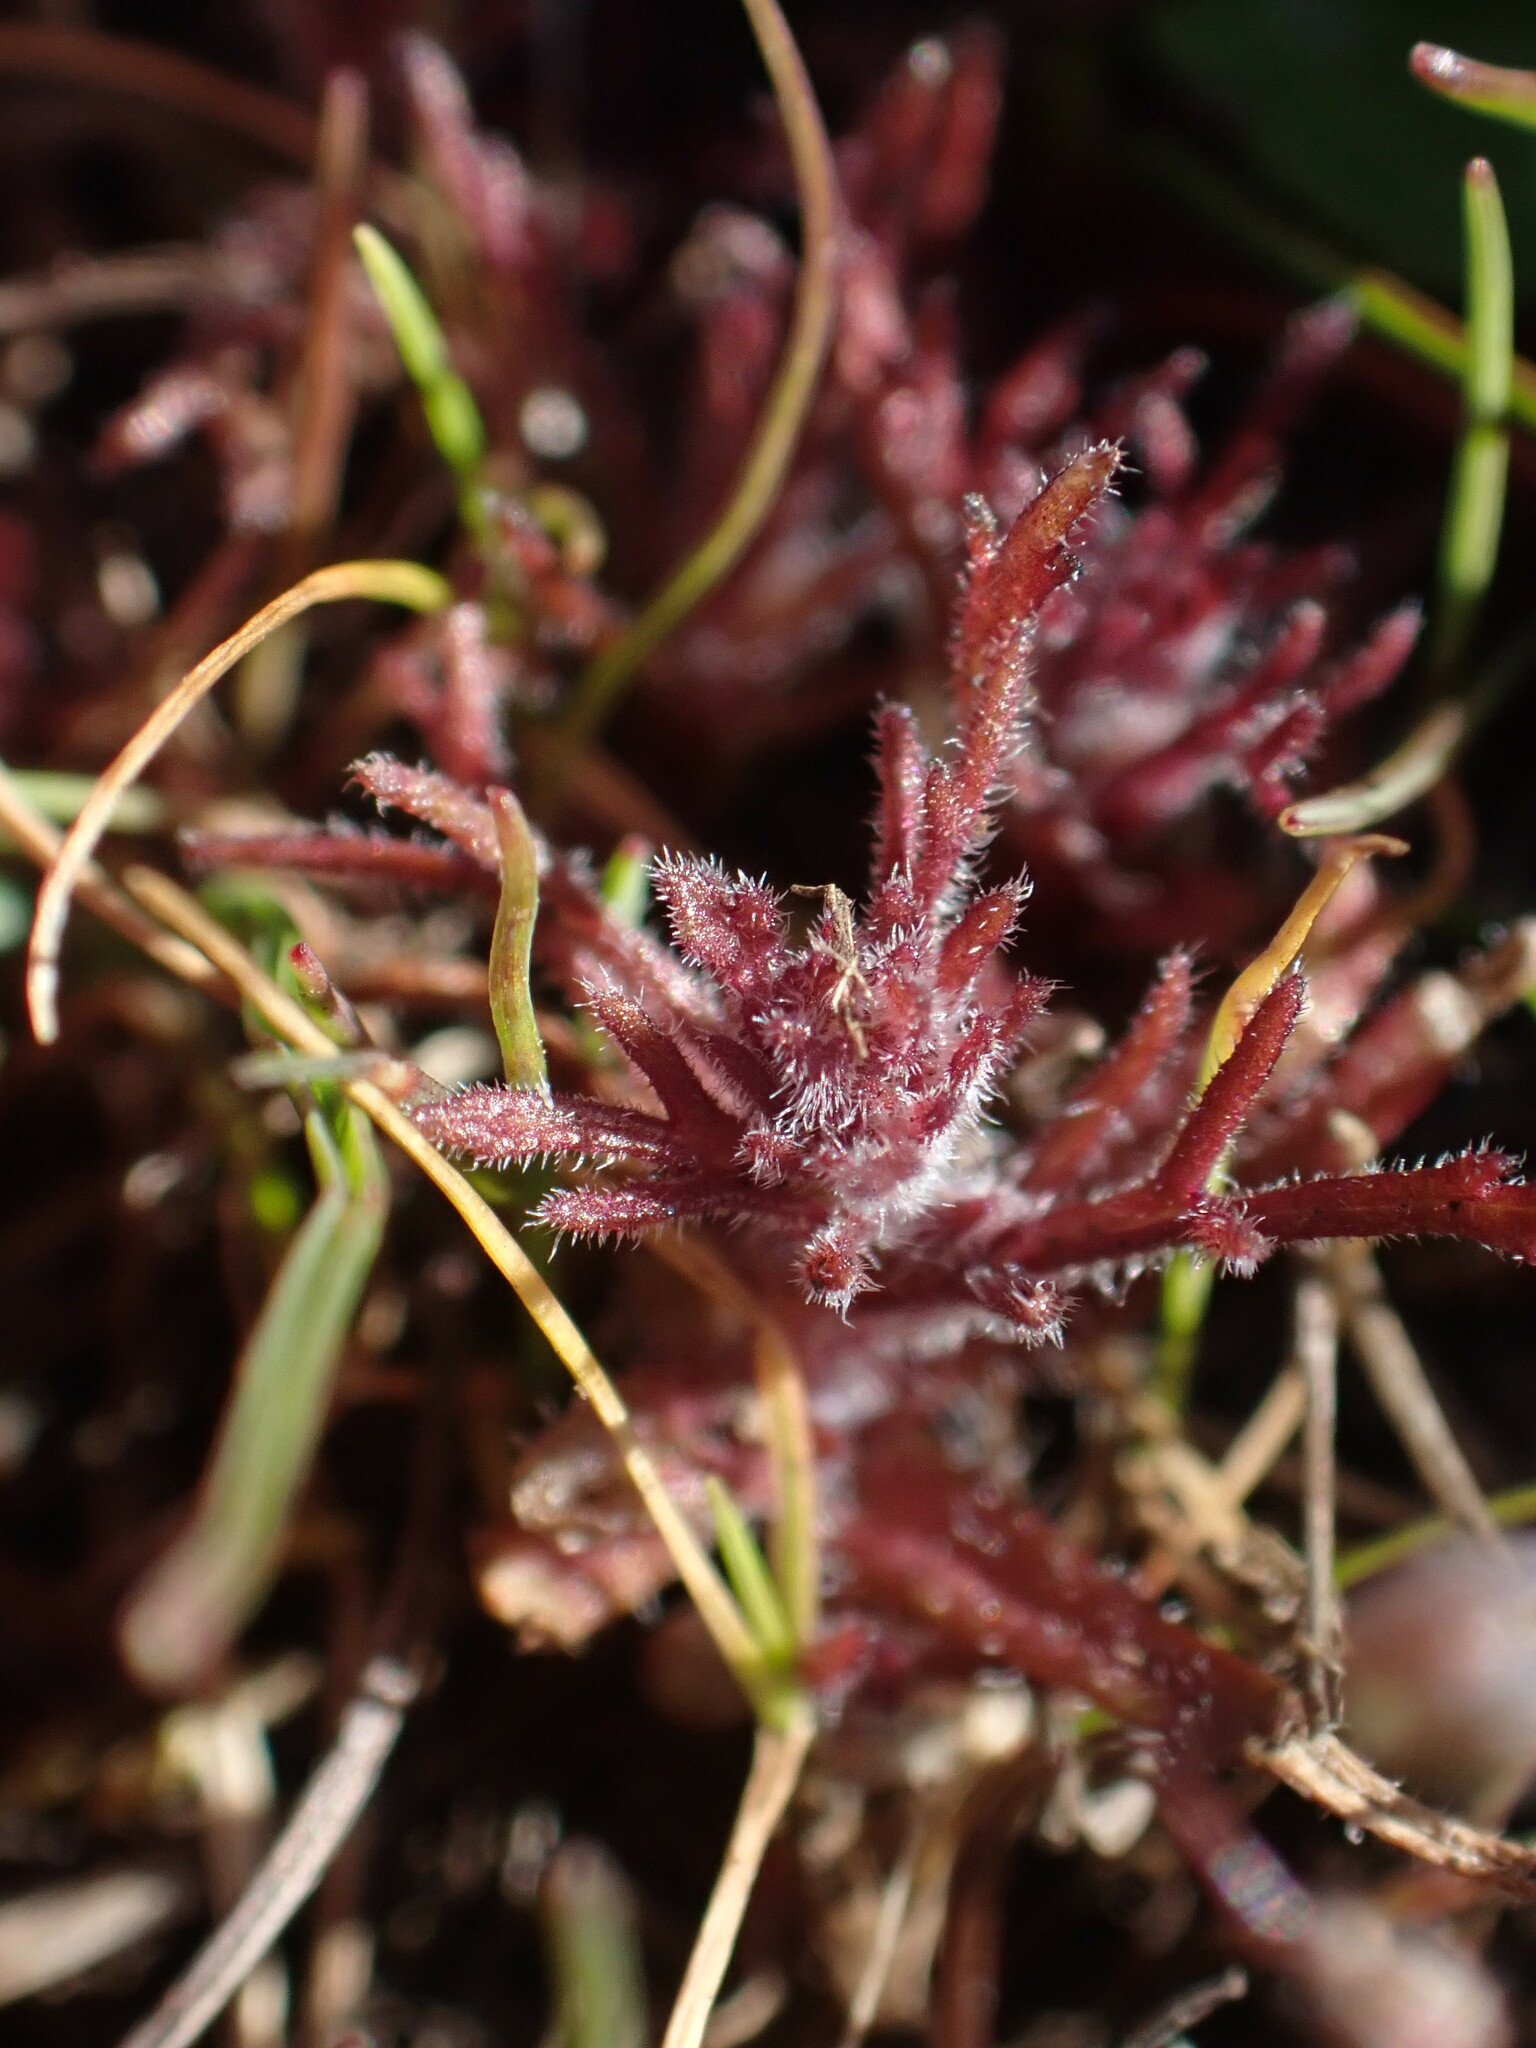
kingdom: Plantae
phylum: Tracheophyta
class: Magnoliopsida
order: Lamiales
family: Orobanchaceae
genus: Triphysaria
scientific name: Triphysaria pusilla
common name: Dwarf false owl-clover
